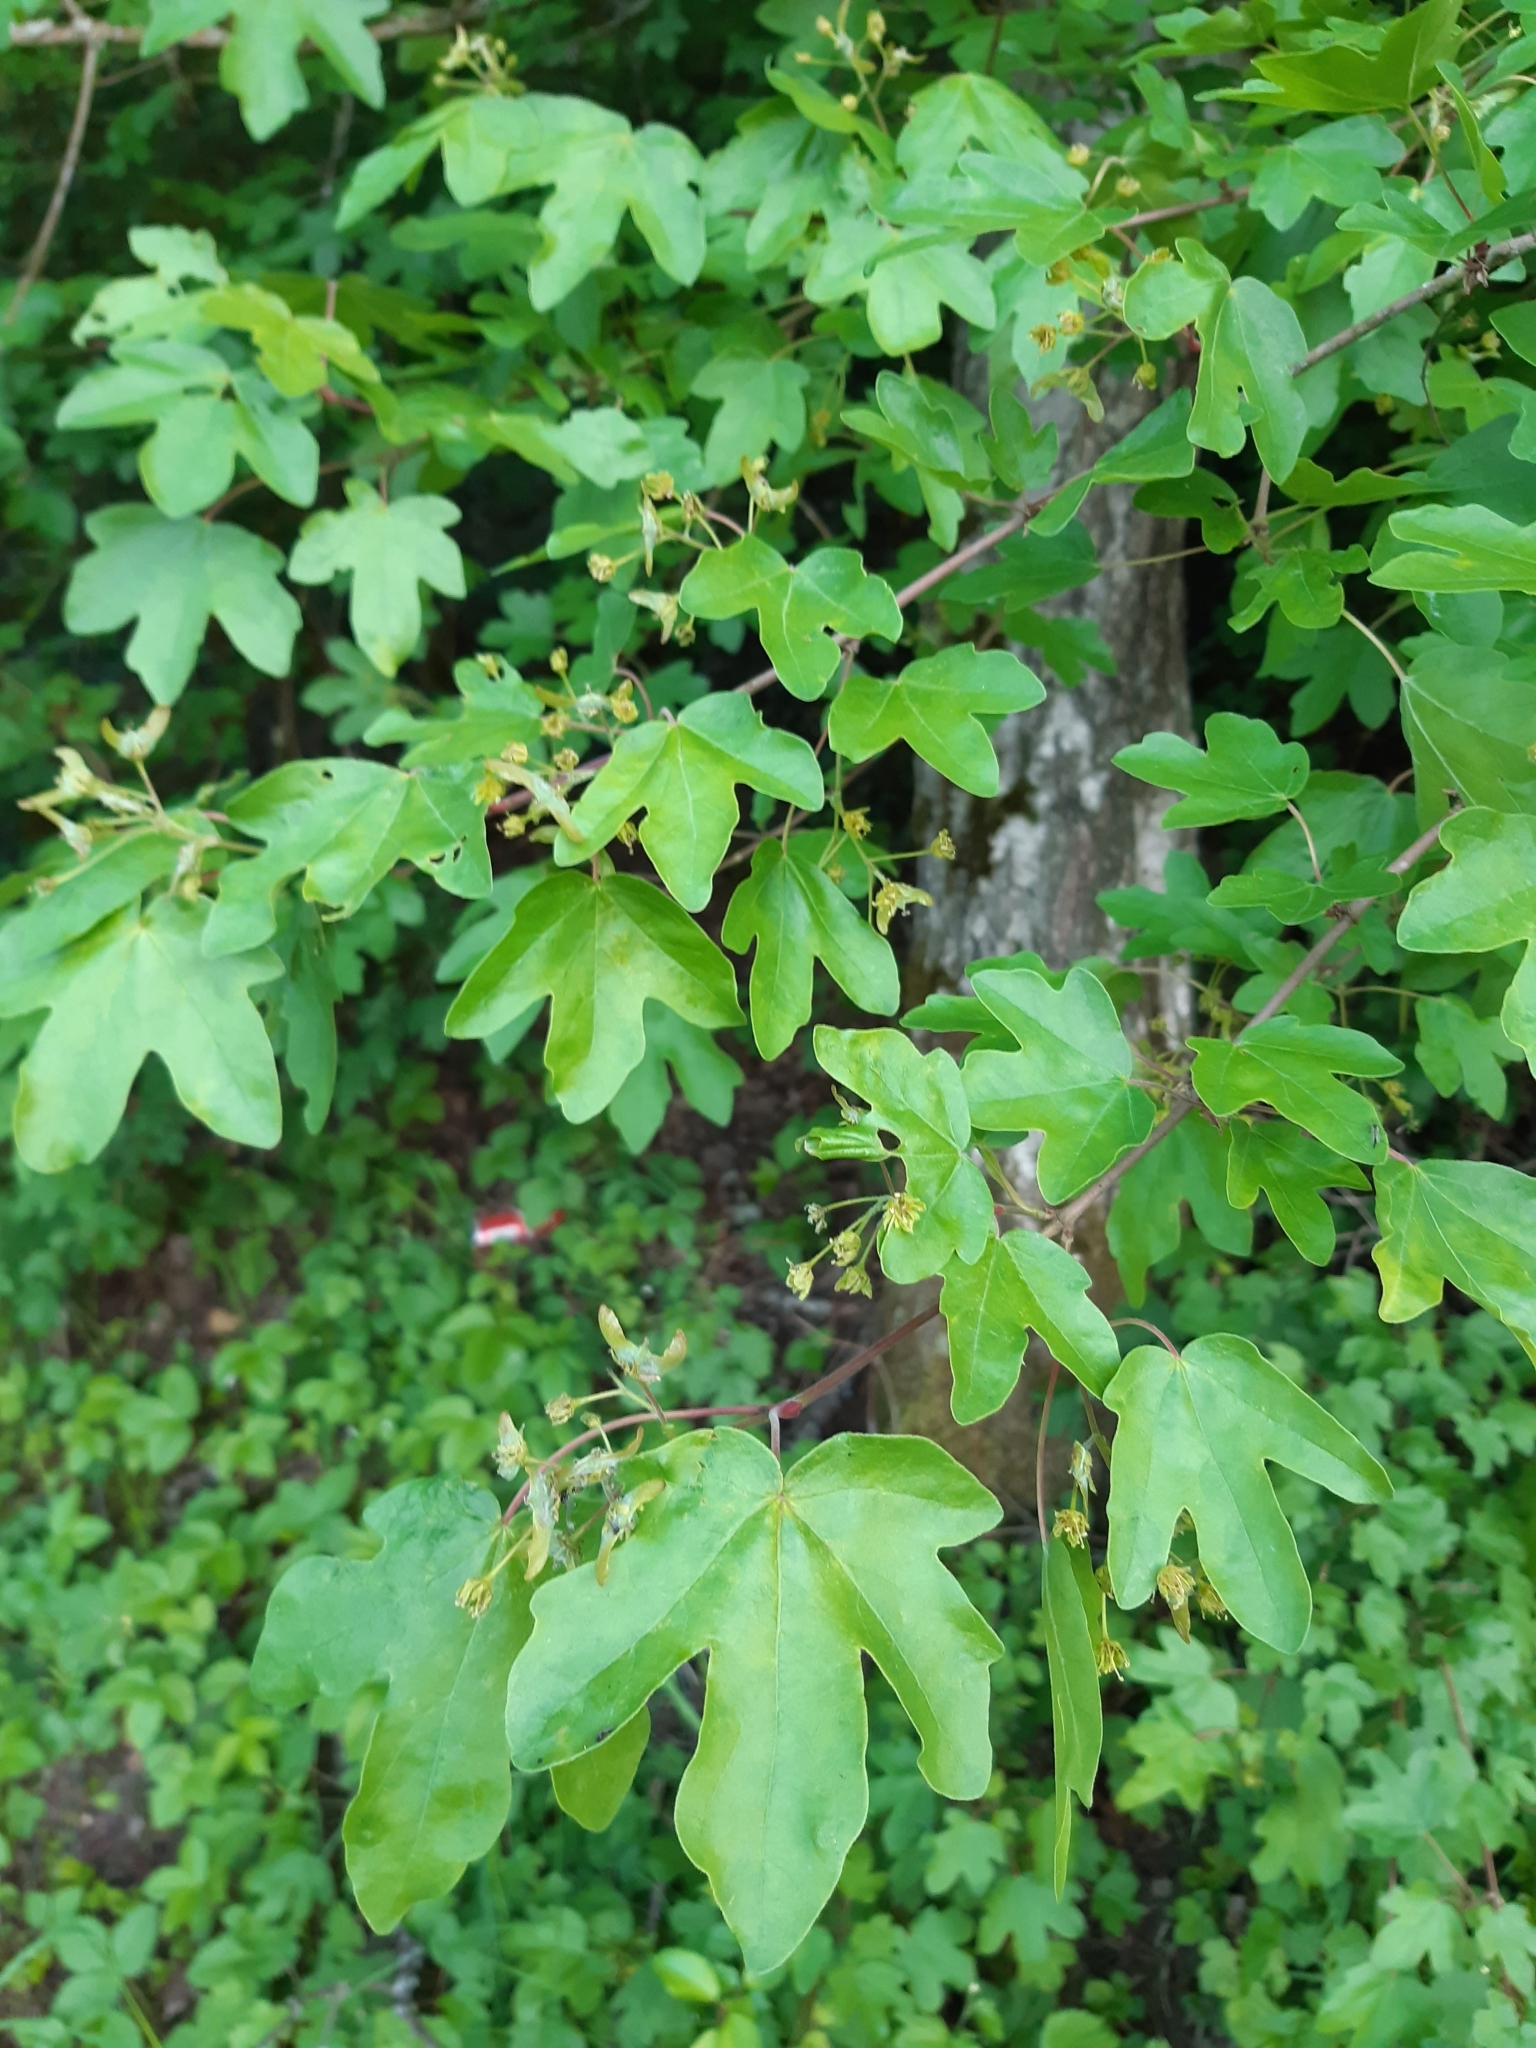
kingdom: Plantae
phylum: Tracheophyta
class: Magnoliopsida
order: Sapindales
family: Sapindaceae
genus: Acer
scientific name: Acer campestre
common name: Field maple
